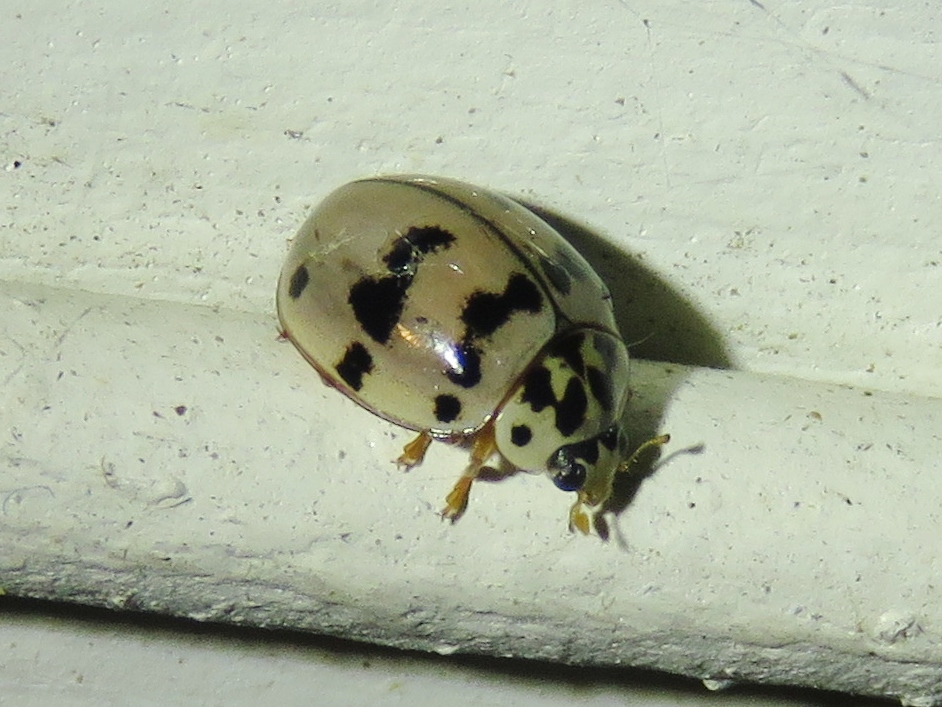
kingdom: Animalia
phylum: Arthropoda
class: Insecta
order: Coleoptera
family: Coccinellidae
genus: Olla
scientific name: Olla v-nigrum
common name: Ashy gray lady beetle
